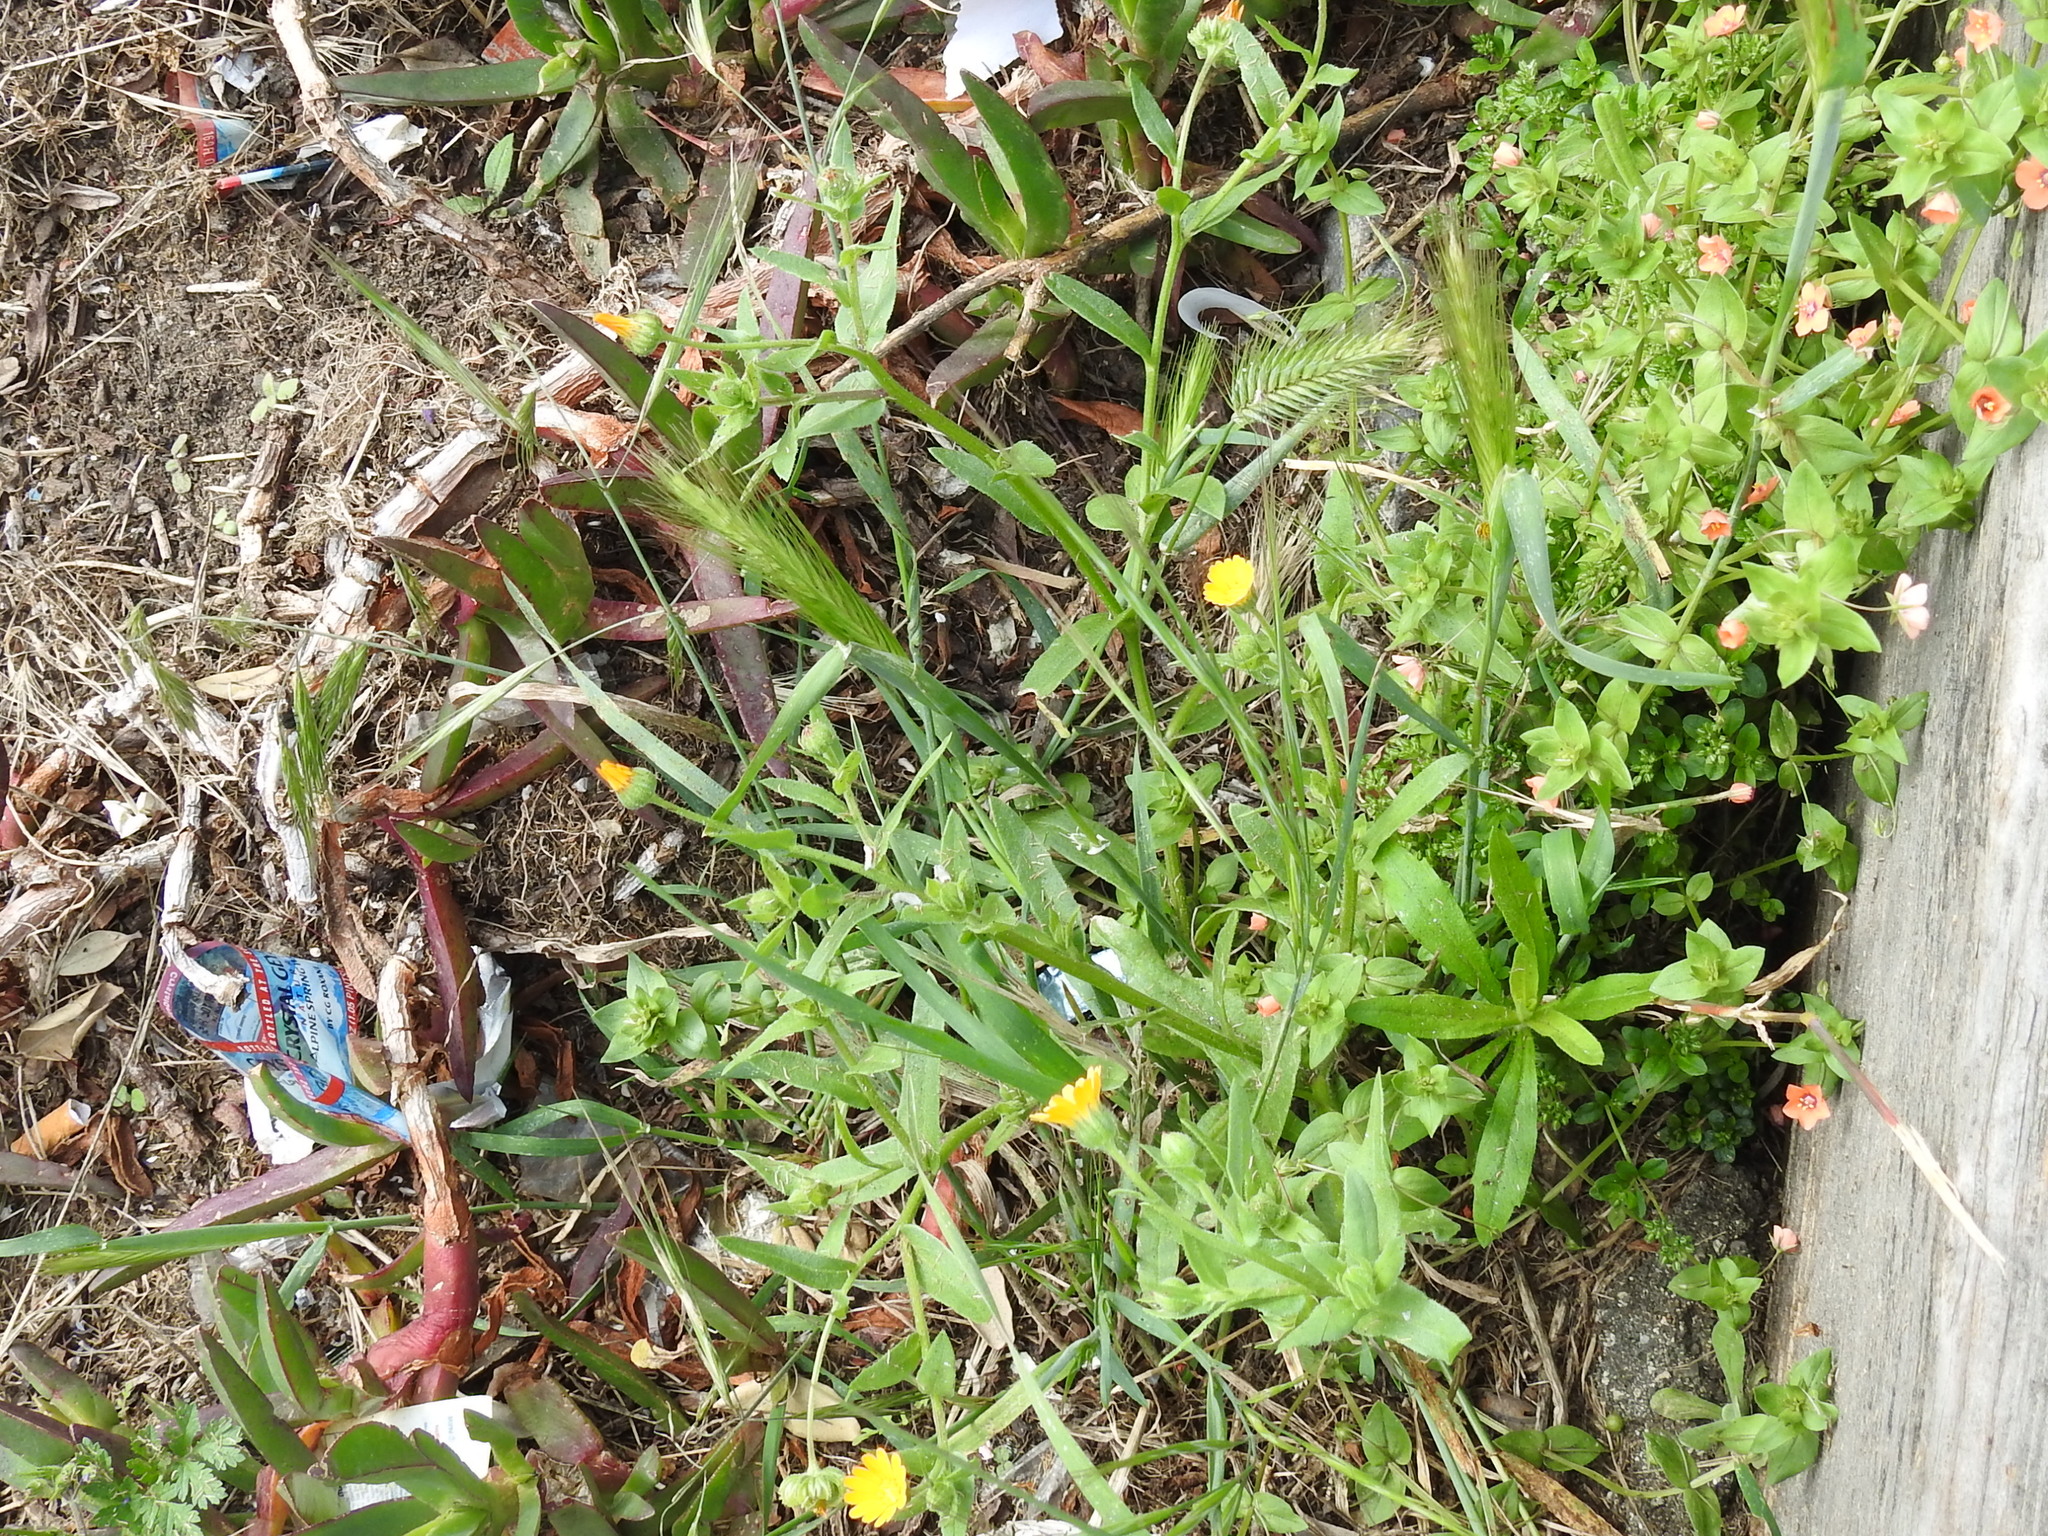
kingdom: Plantae
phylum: Tracheophyta
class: Magnoliopsida
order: Asterales
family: Asteraceae
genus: Calendula
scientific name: Calendula arvensis
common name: Field marigold
